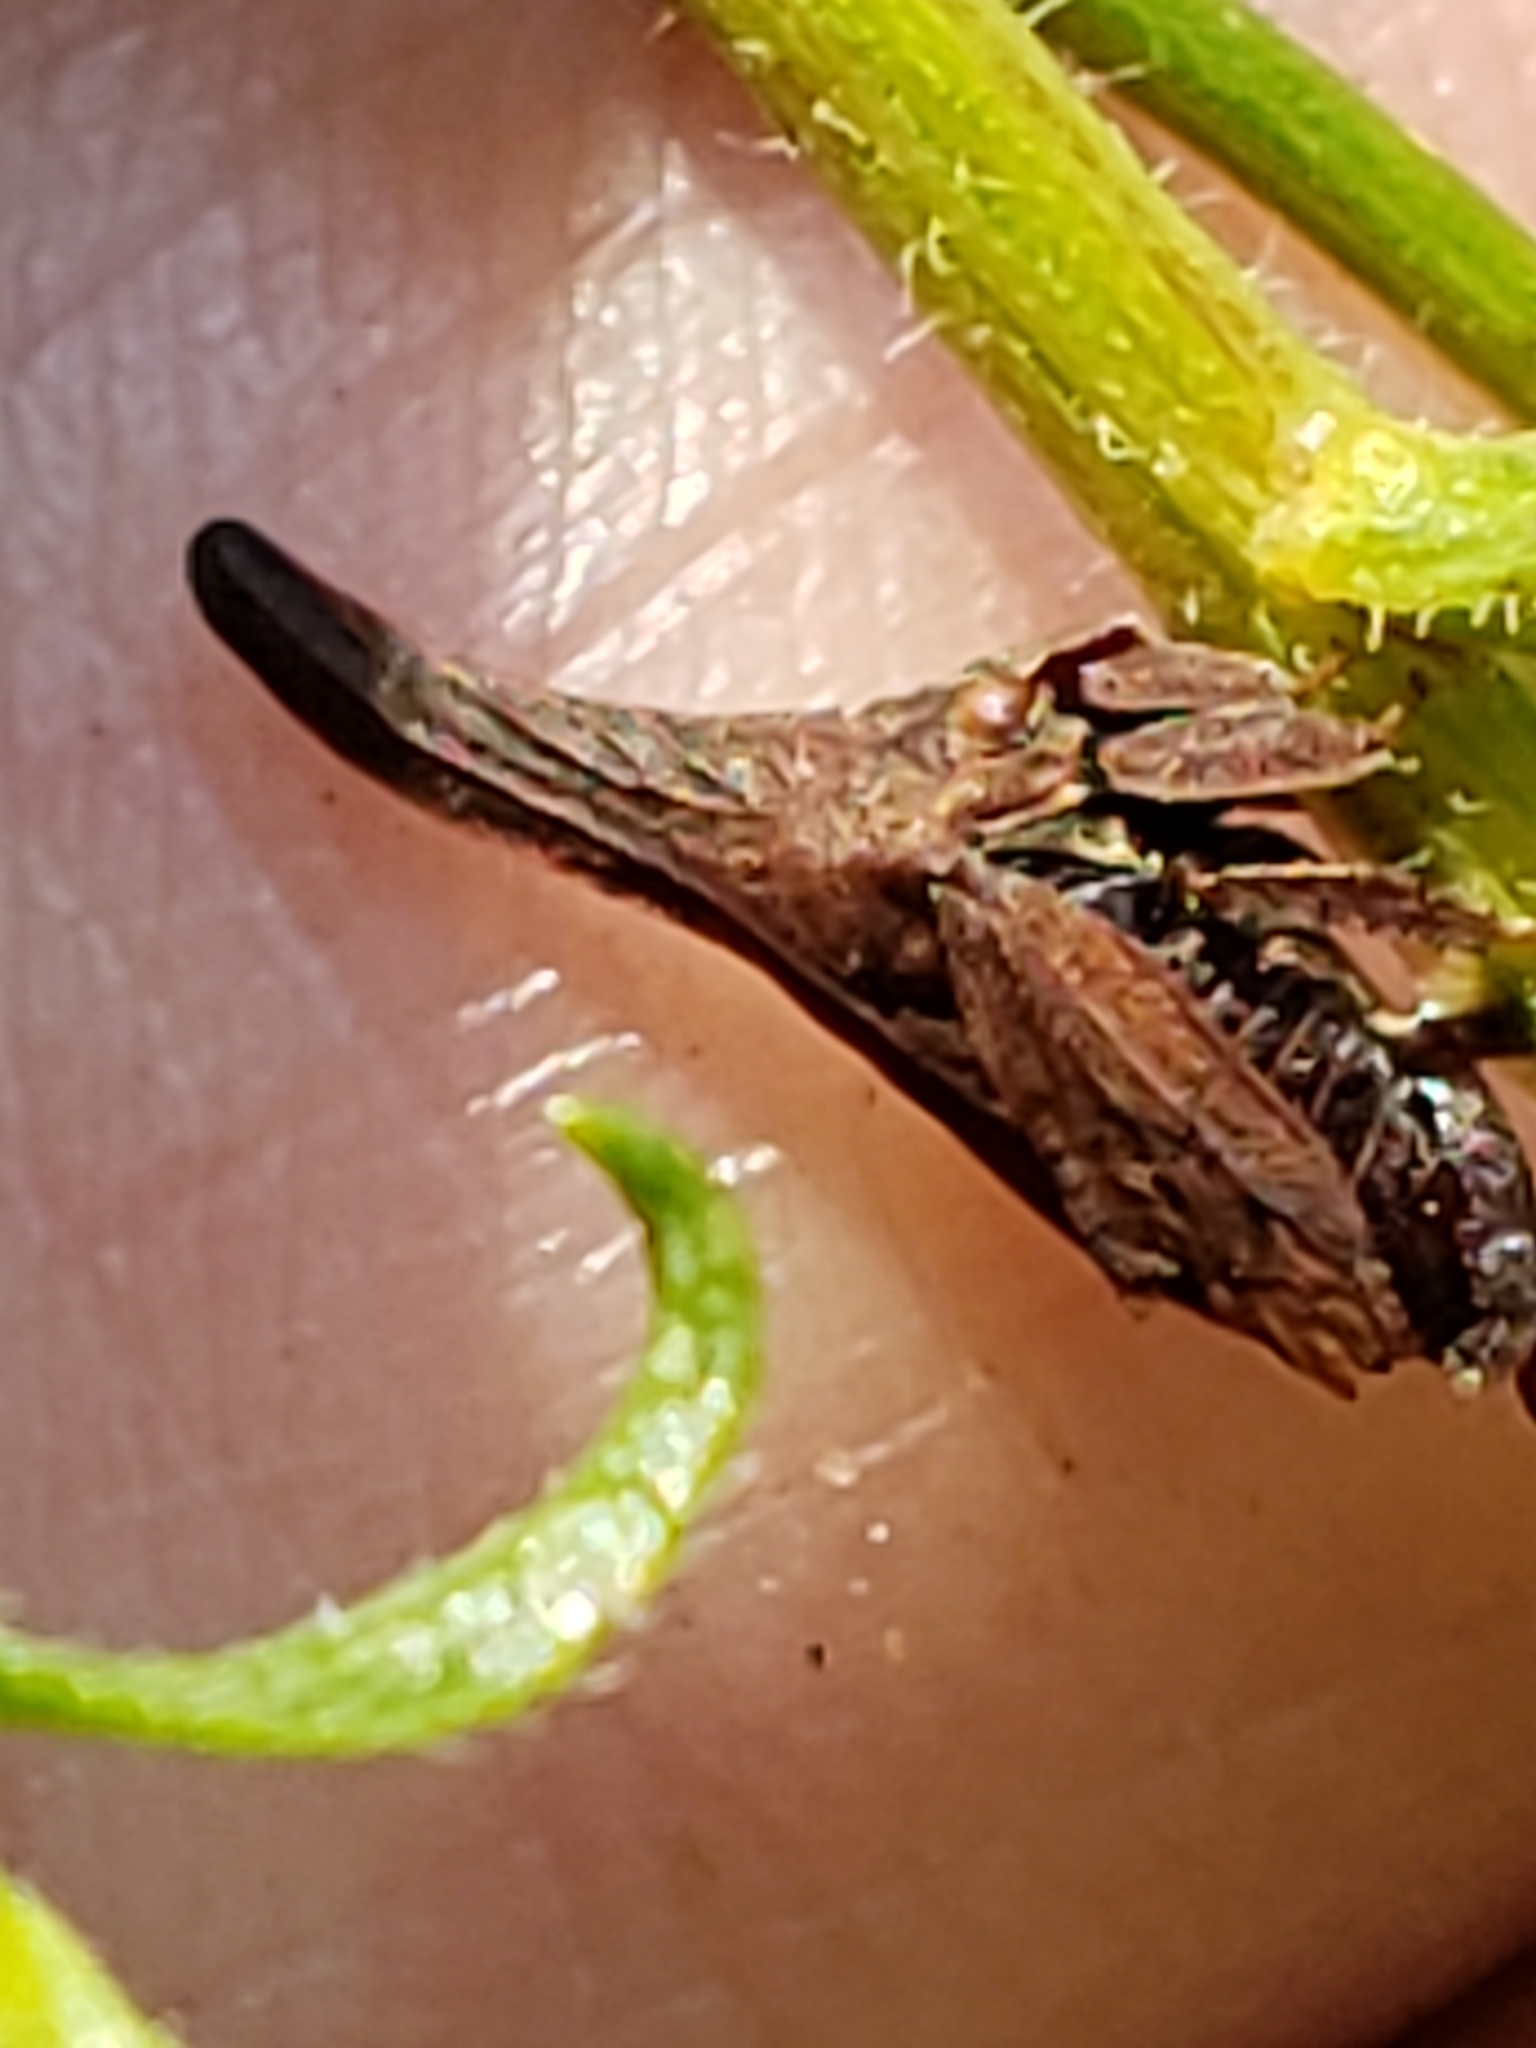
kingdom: Animalia
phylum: Arthropoda
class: Insecta
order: Hemiptera
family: Membracidae
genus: Enchenopa
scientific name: Enchenopa latipes
